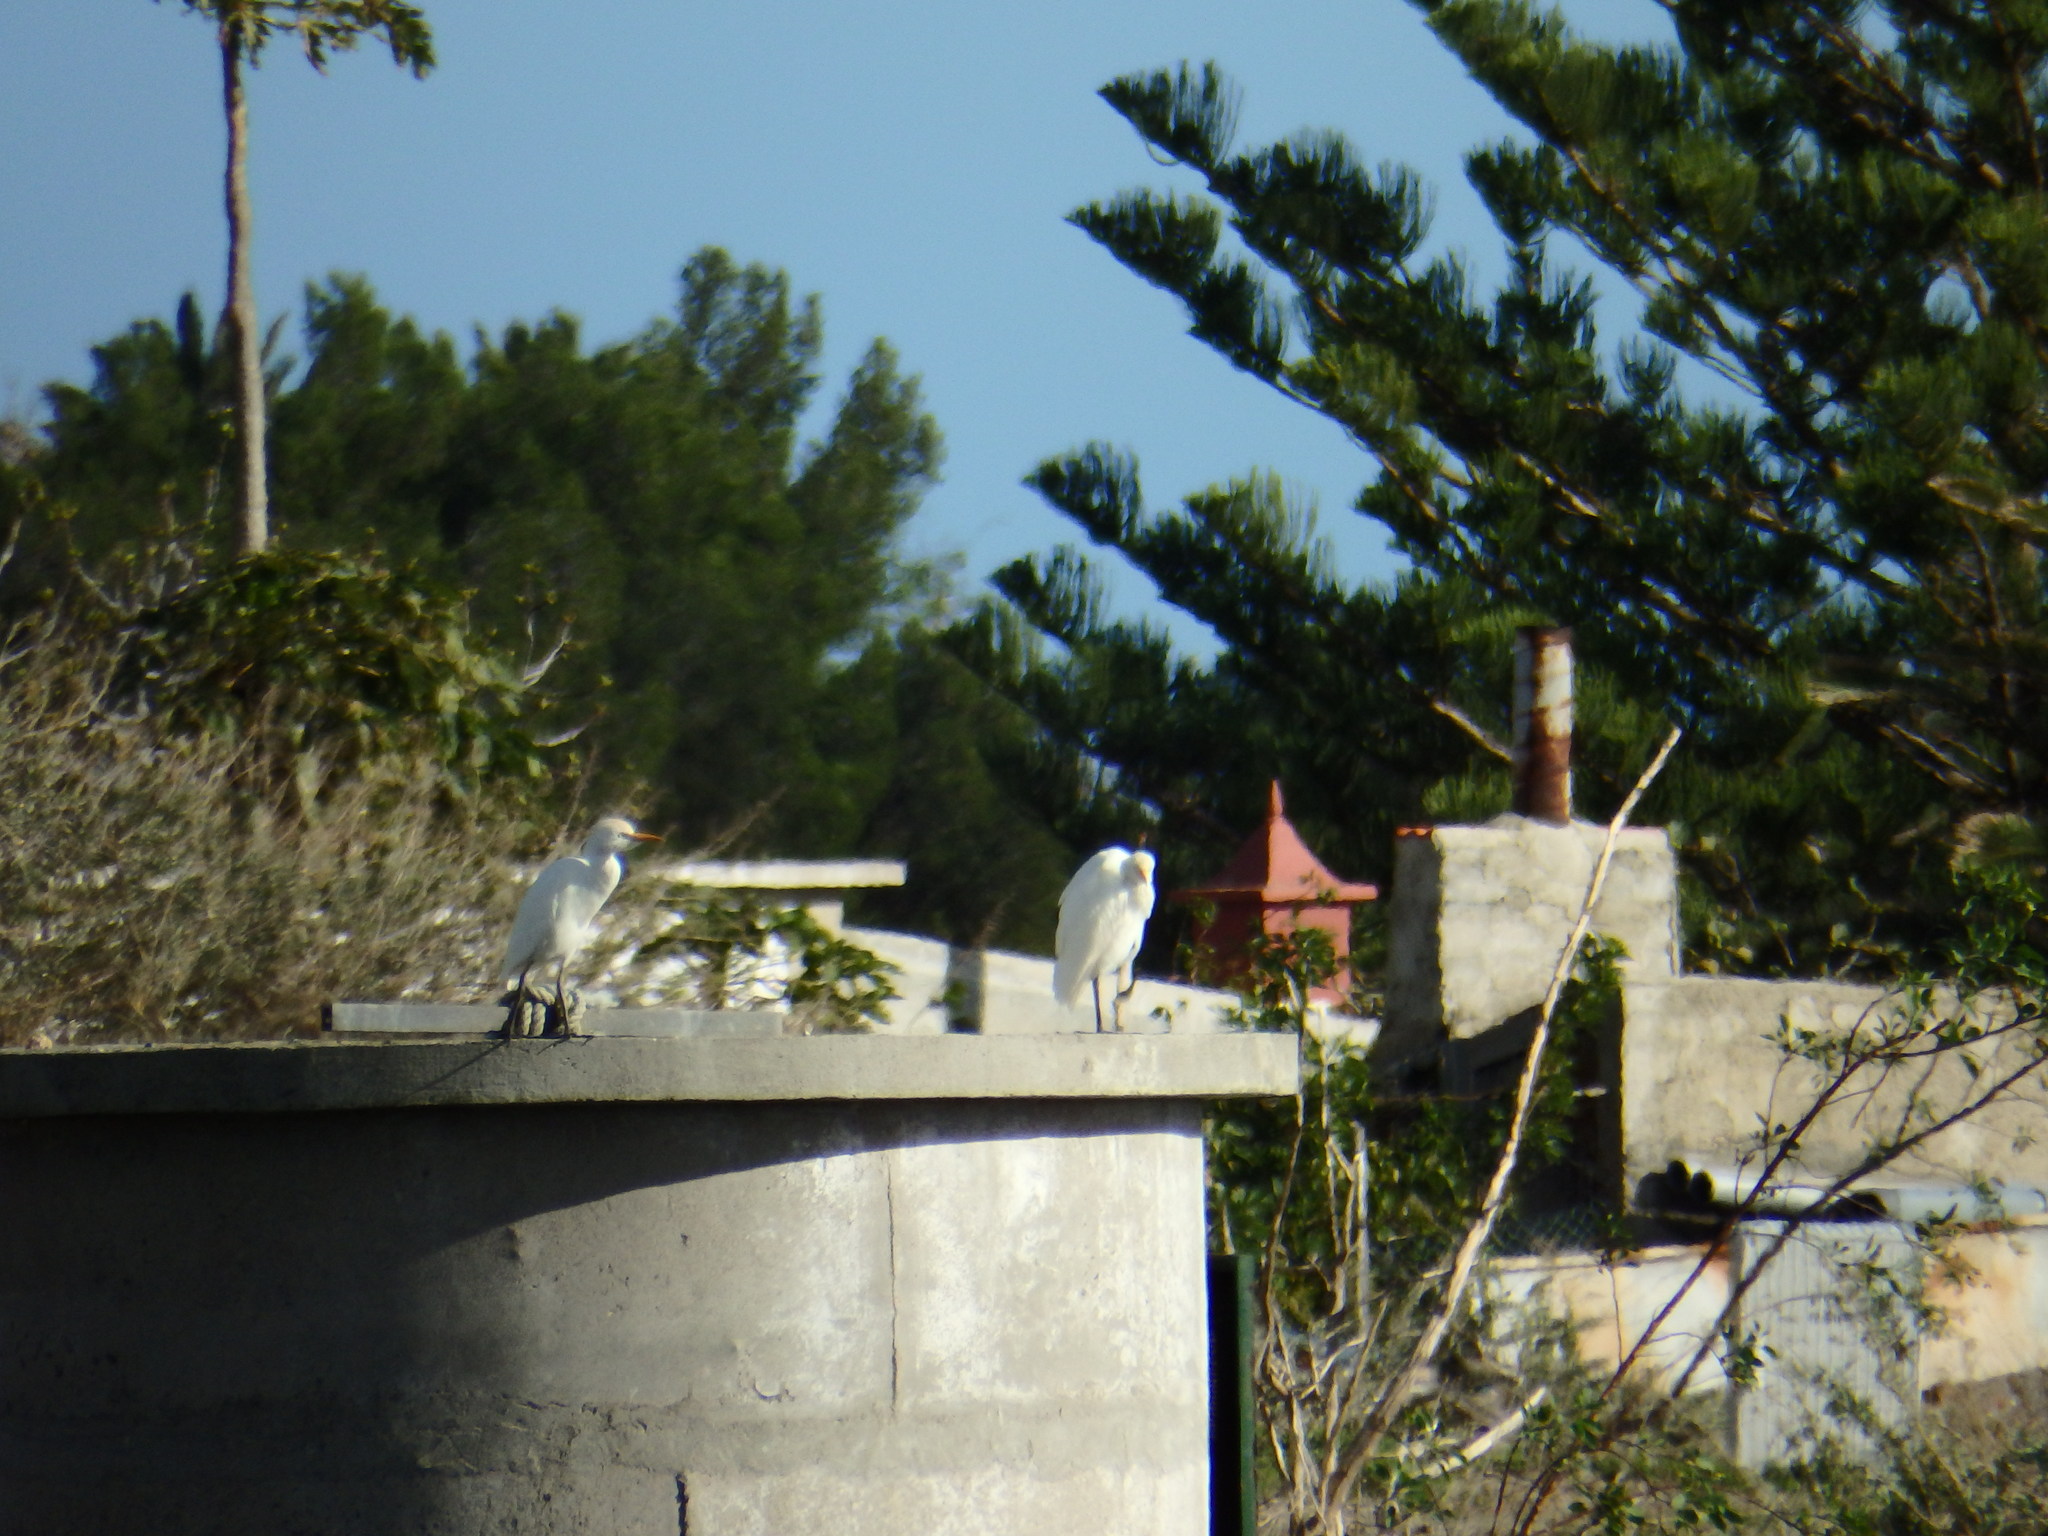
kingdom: Animalia
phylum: Chordata
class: Aves
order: Pelecaniformes
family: Ardeidae
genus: Bubulcus
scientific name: Bubulcus ibis
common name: Cattle egret
